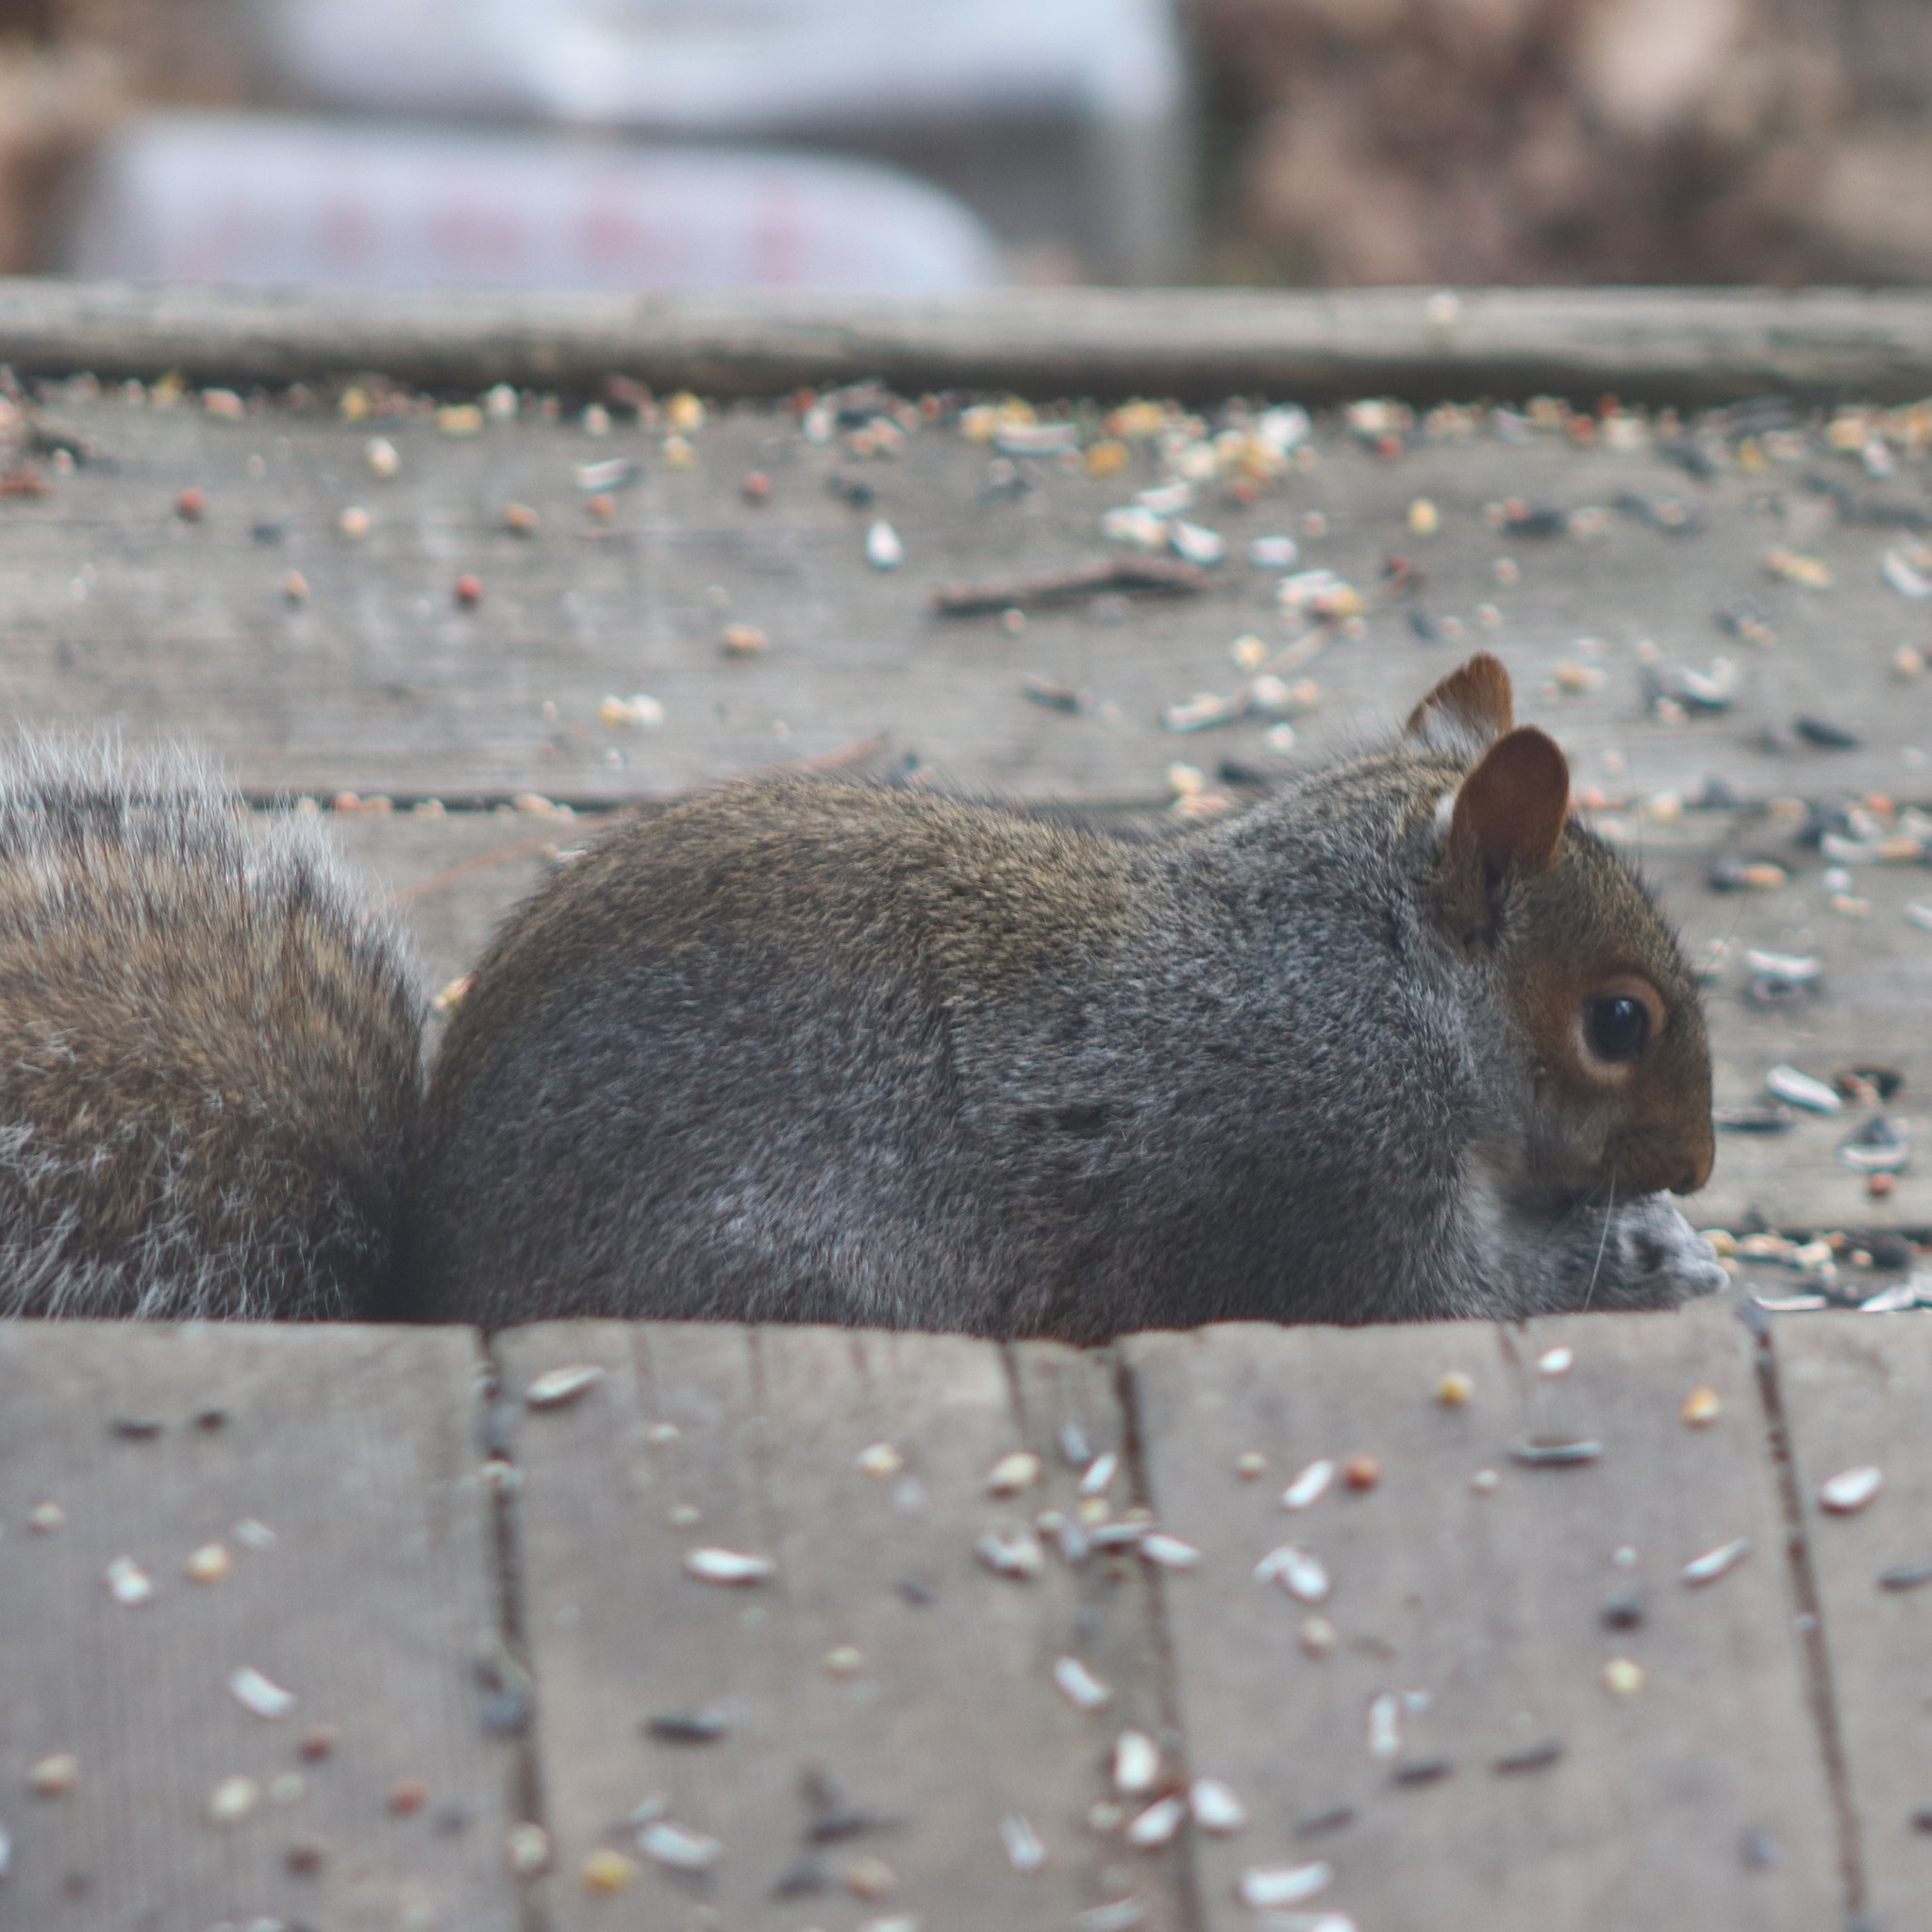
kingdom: Animalia
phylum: Chordata
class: Mammalia
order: Rodentia
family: Sciuridae
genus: Sciurus
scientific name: Sciurus carolinensis
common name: Eastern gray squirrel
